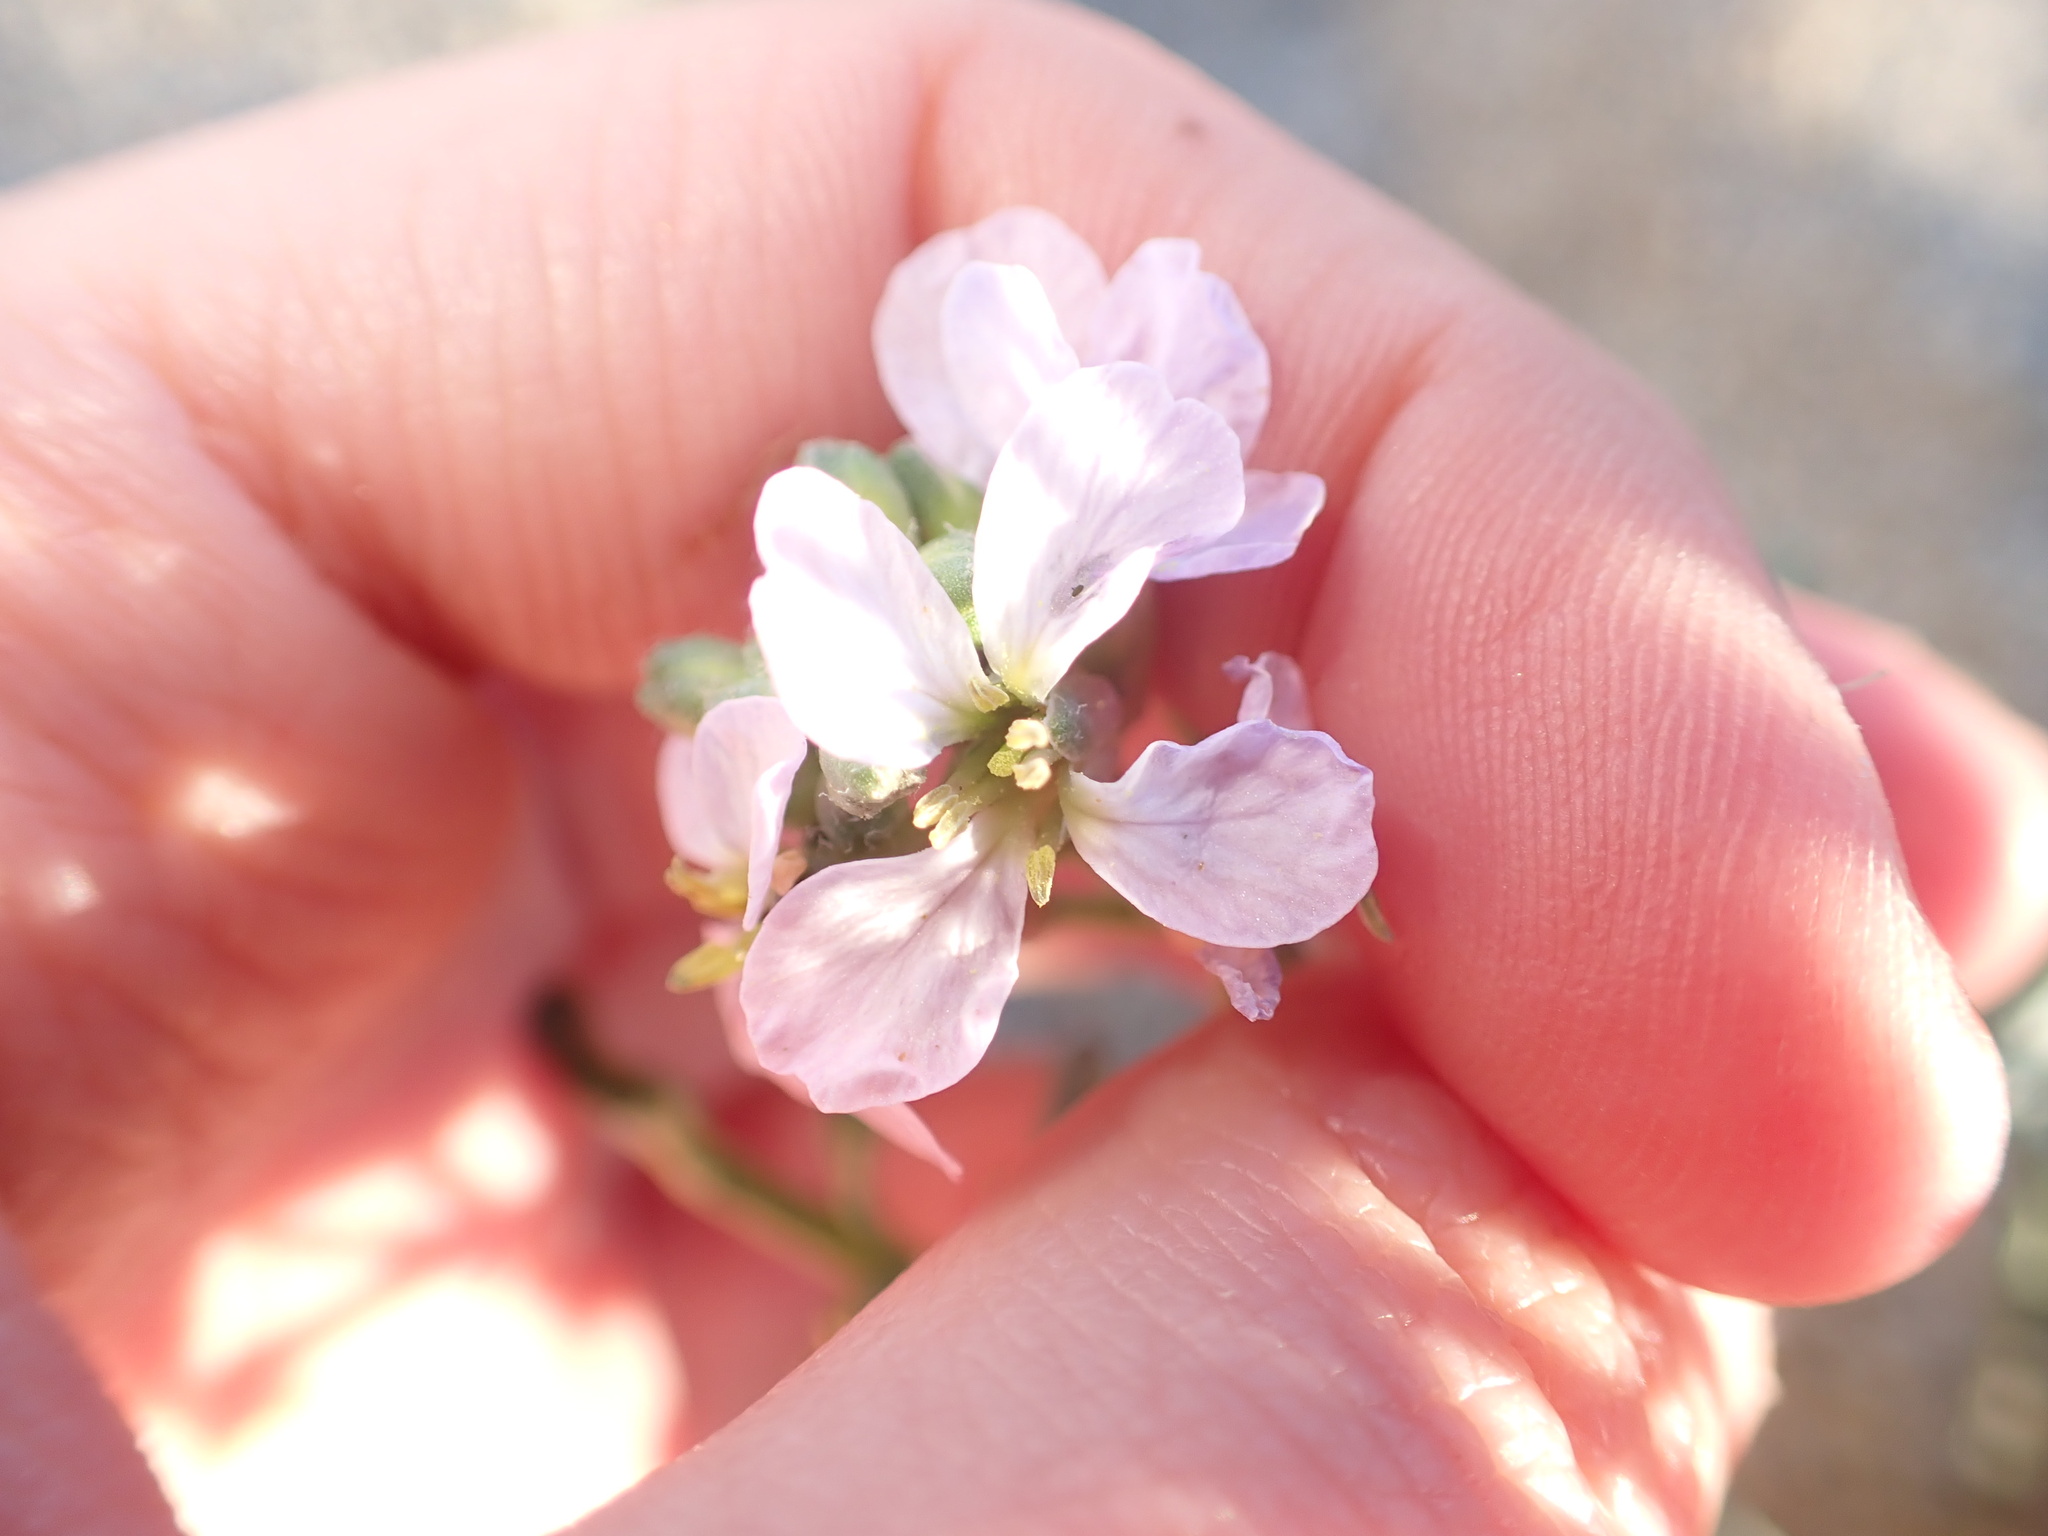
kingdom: Plantae
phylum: Tracheophyta
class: Magnoliopsida
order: Brassicales
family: Brassicaceae
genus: Cakile
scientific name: Cakile maritima
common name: Sea rocket
